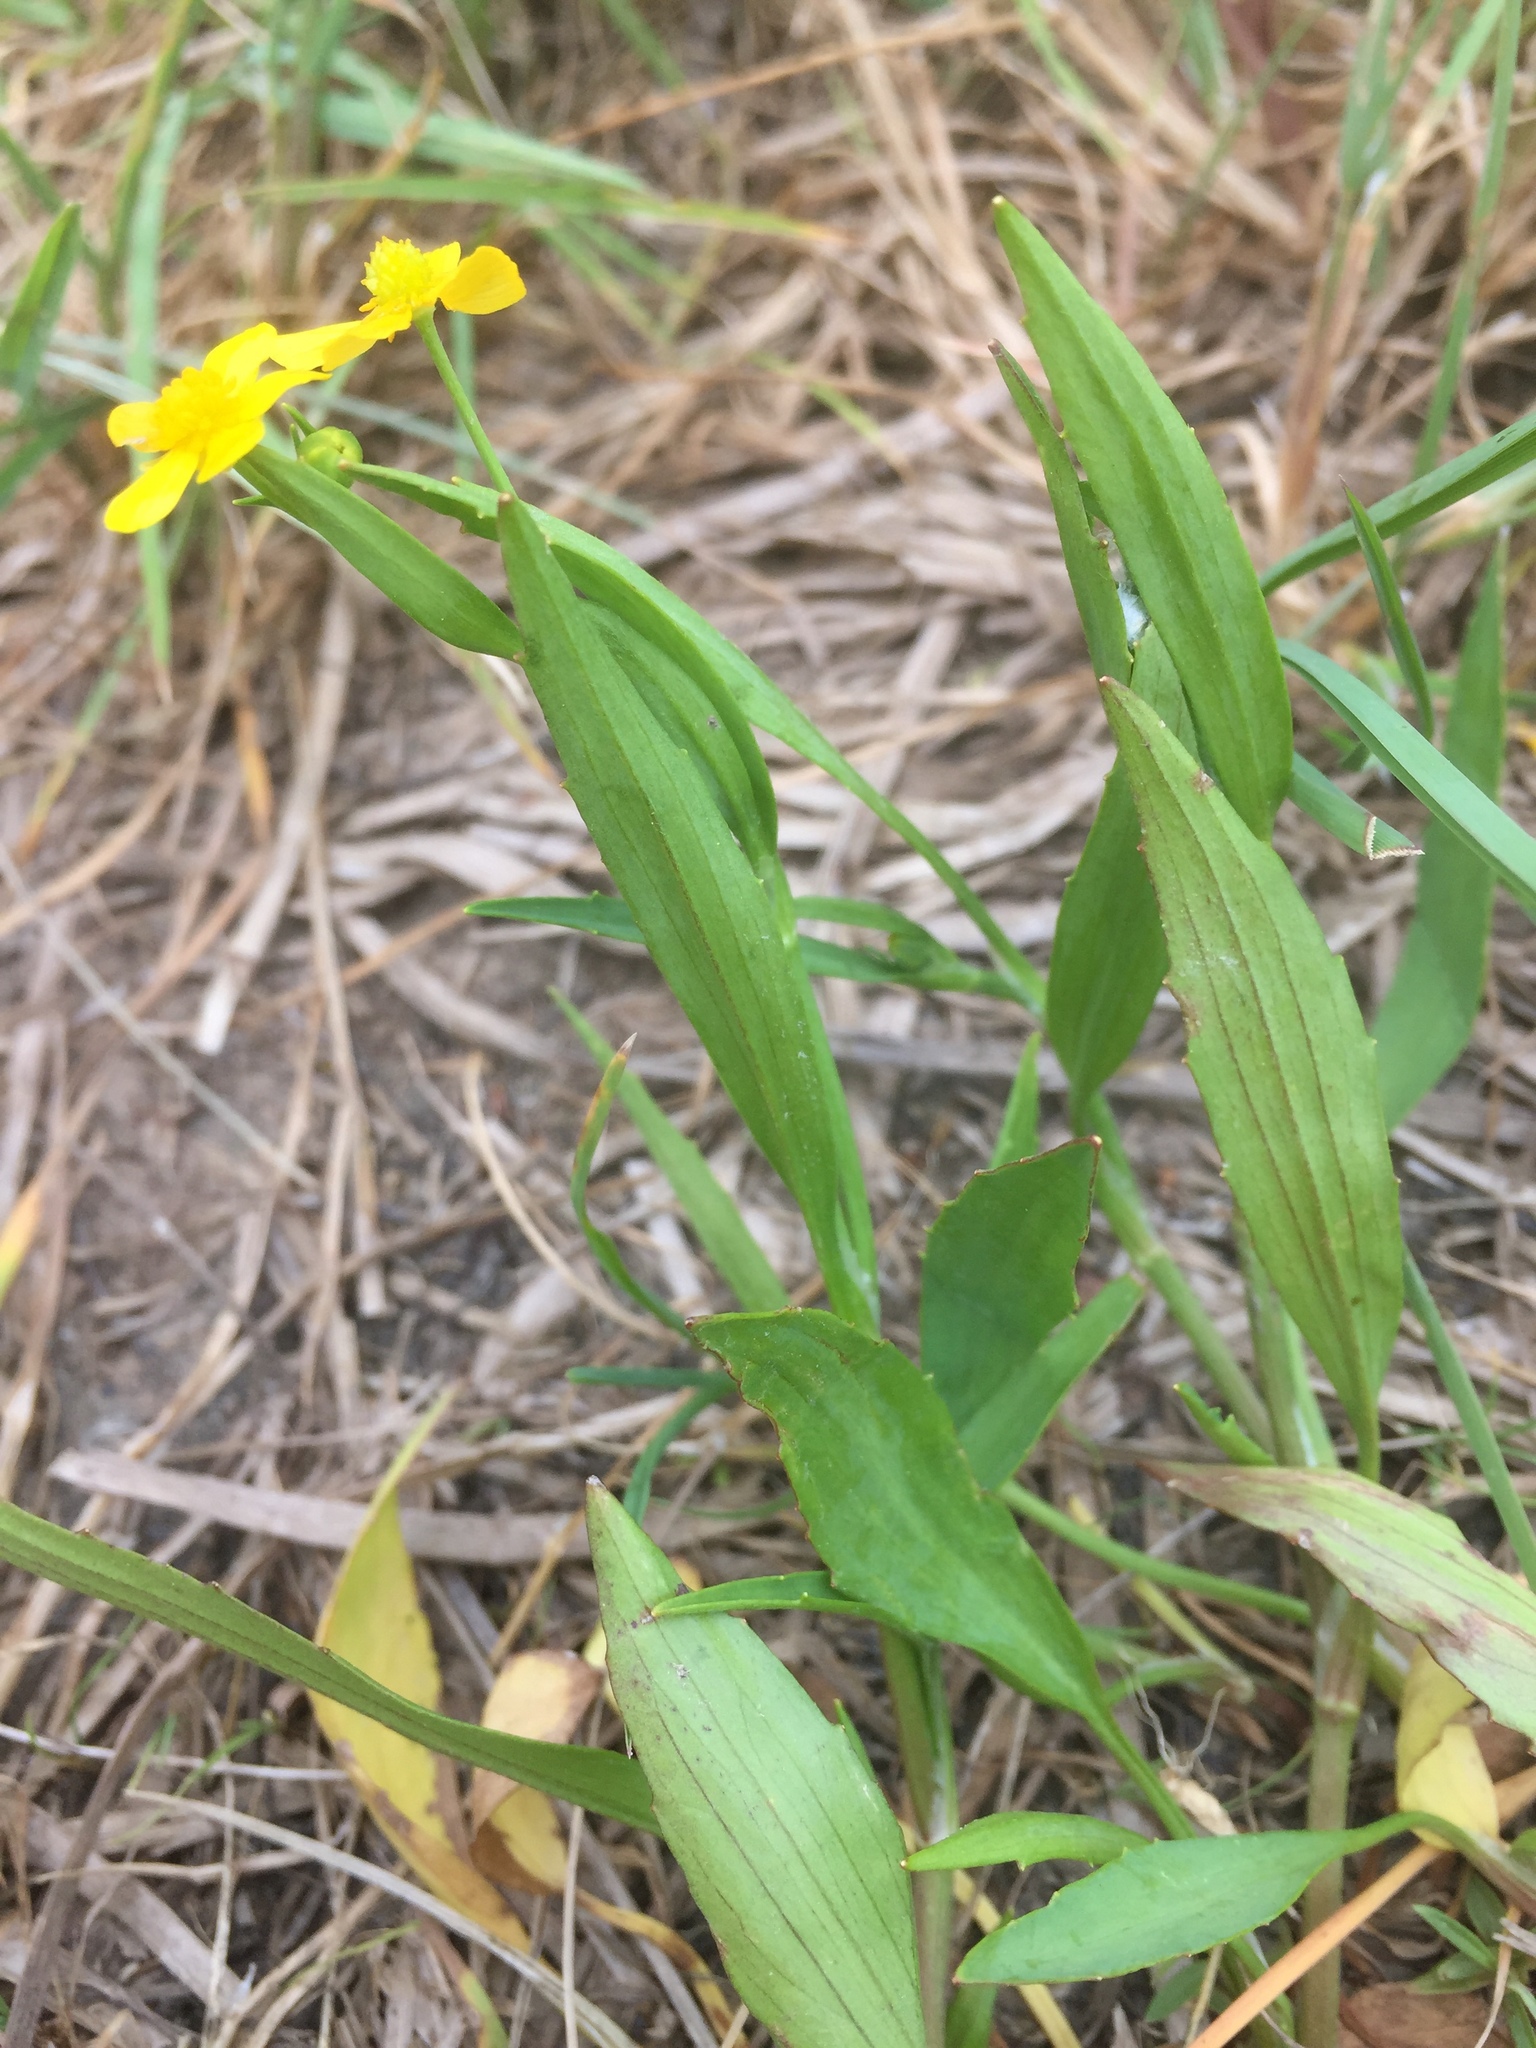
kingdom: Plantae
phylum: Tracheophyta
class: Magnoliopsida
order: Ranunculales
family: Ranunculaceae
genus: Ranunculus
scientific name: Ranunculus flammula
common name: Lesser spearwort
